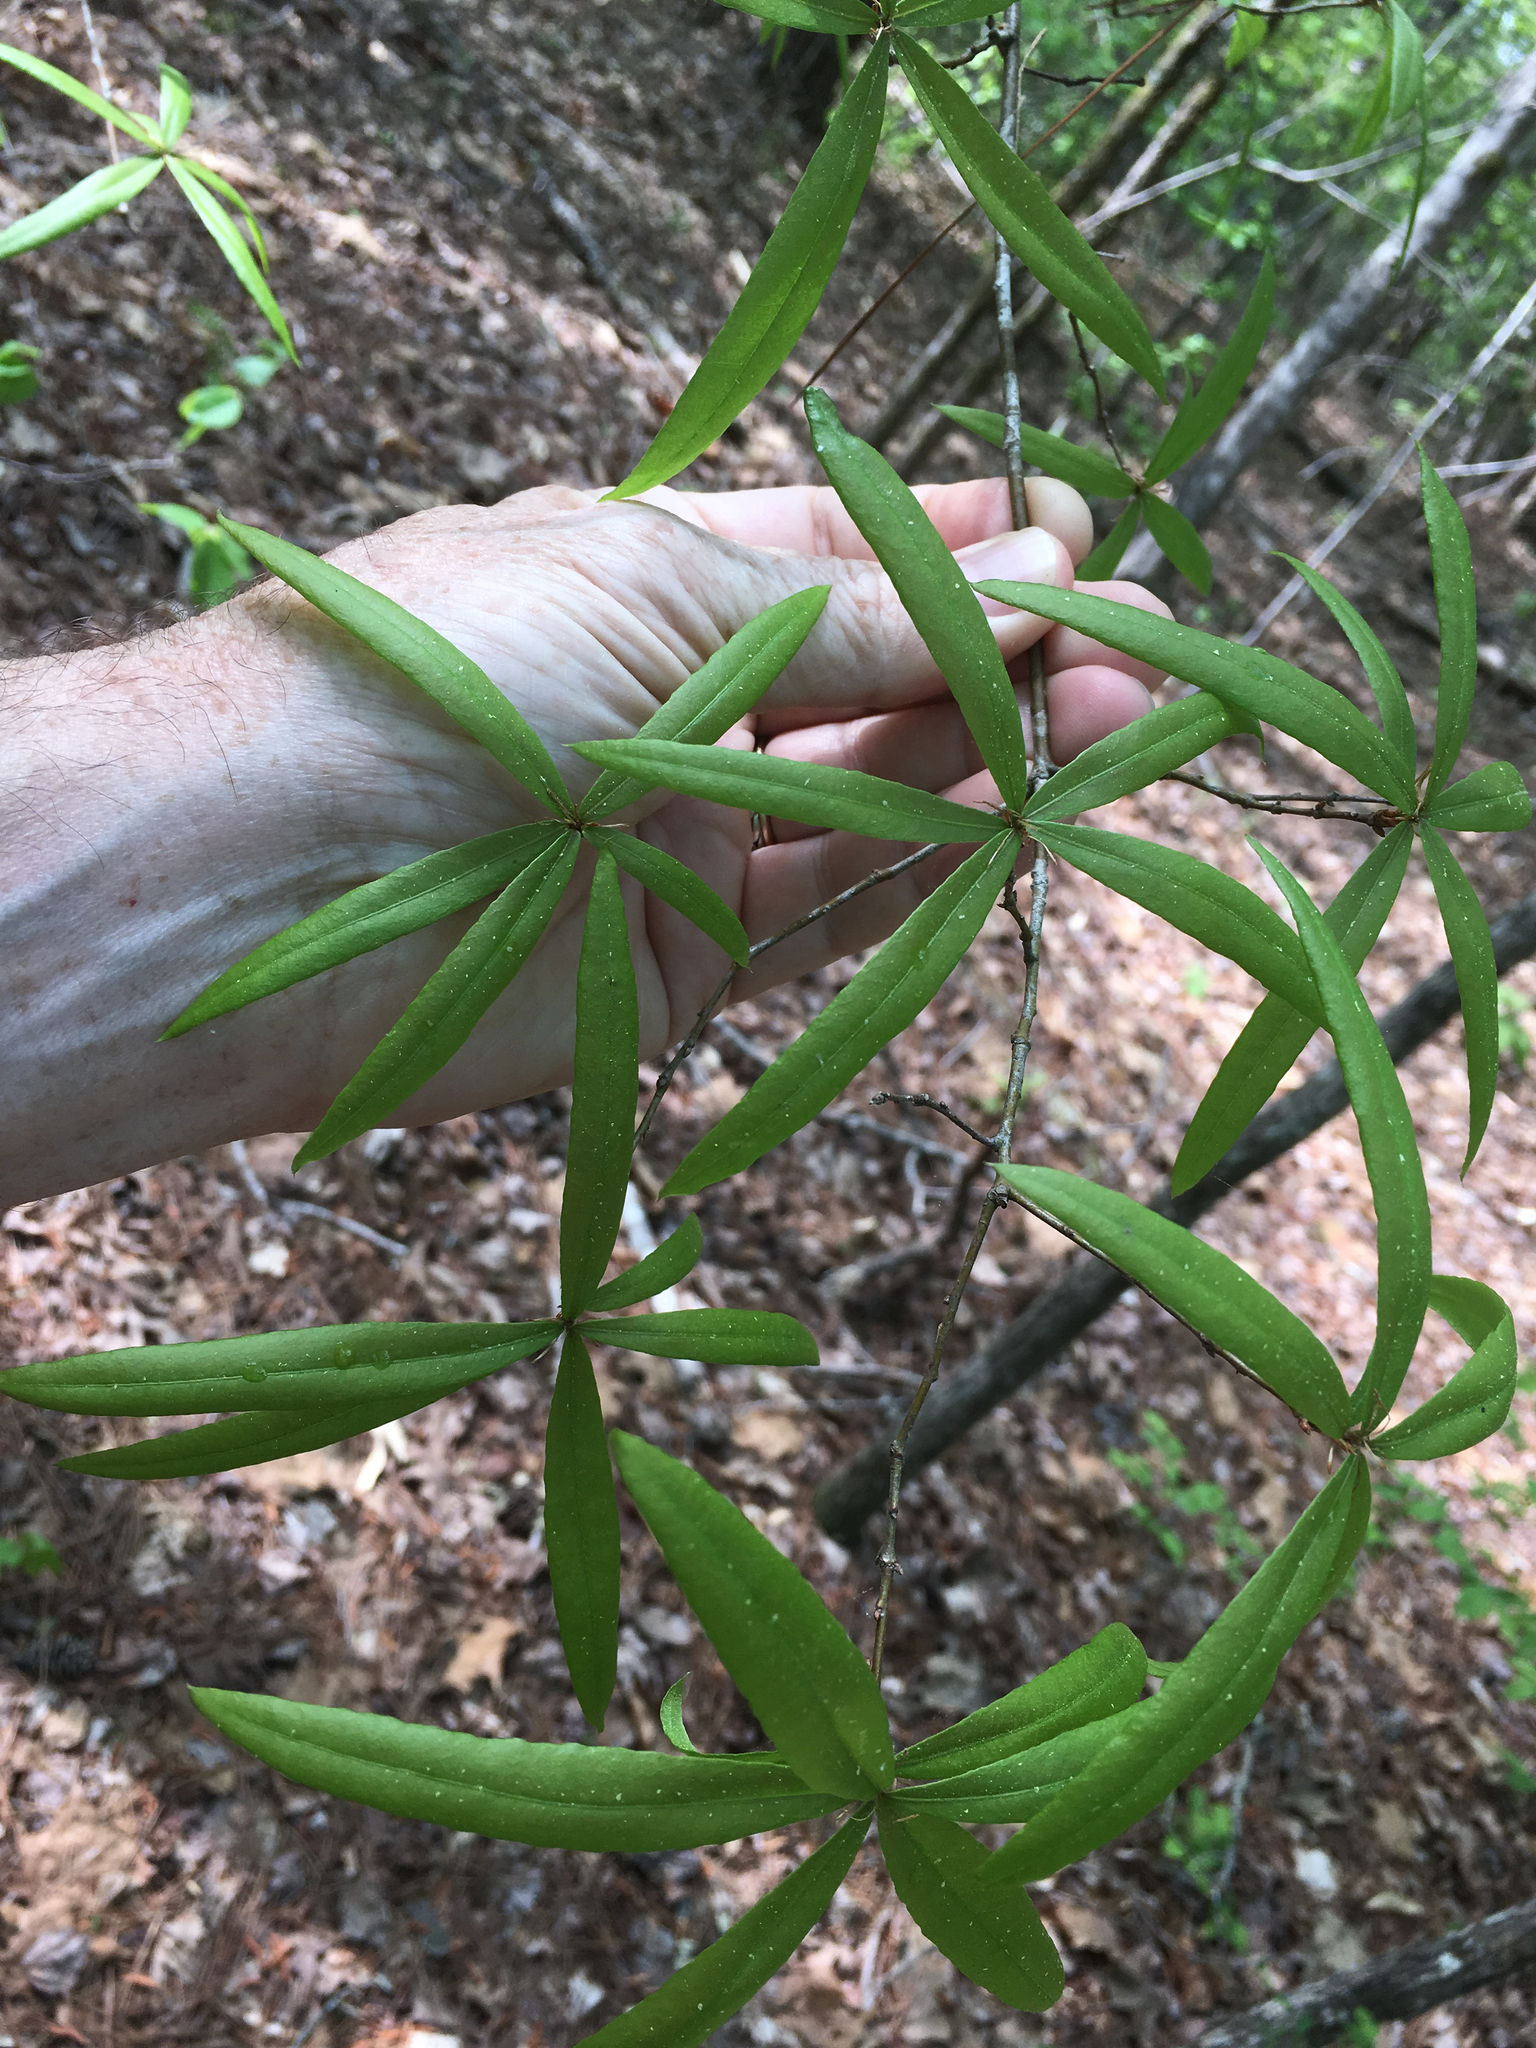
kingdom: Plantae
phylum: Tracheophyta
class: Magnoliopsida
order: Fagales
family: Fagaceae
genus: Quercus
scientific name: Quercus phellos
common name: Willow oak
